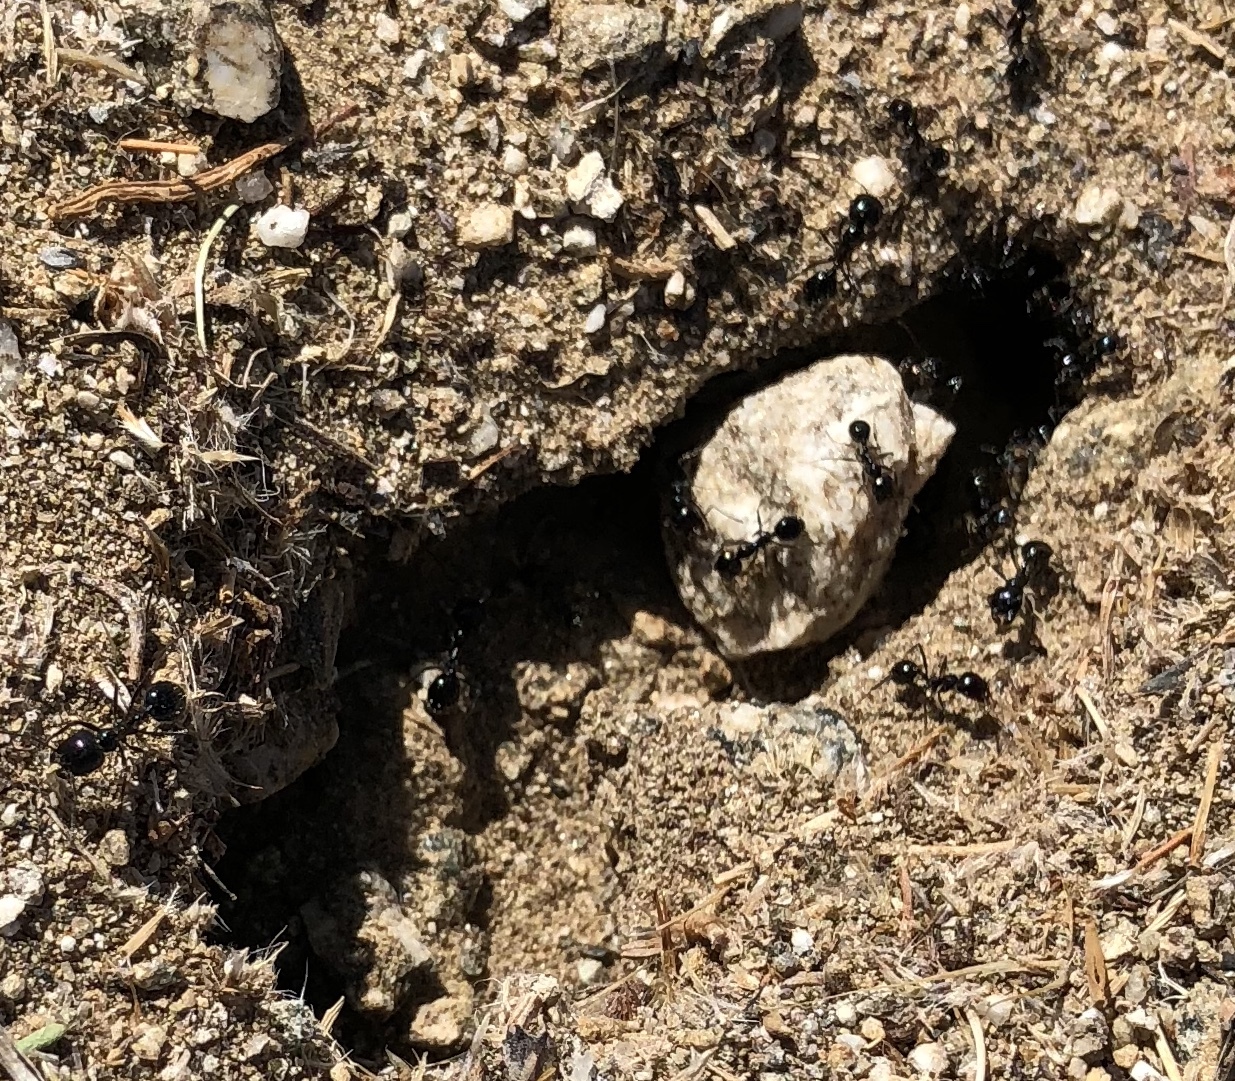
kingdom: Animalia
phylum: Arthropoda
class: Insecta
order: Hymenoptera
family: Formicidae
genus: Messor
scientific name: Messor pergandei
